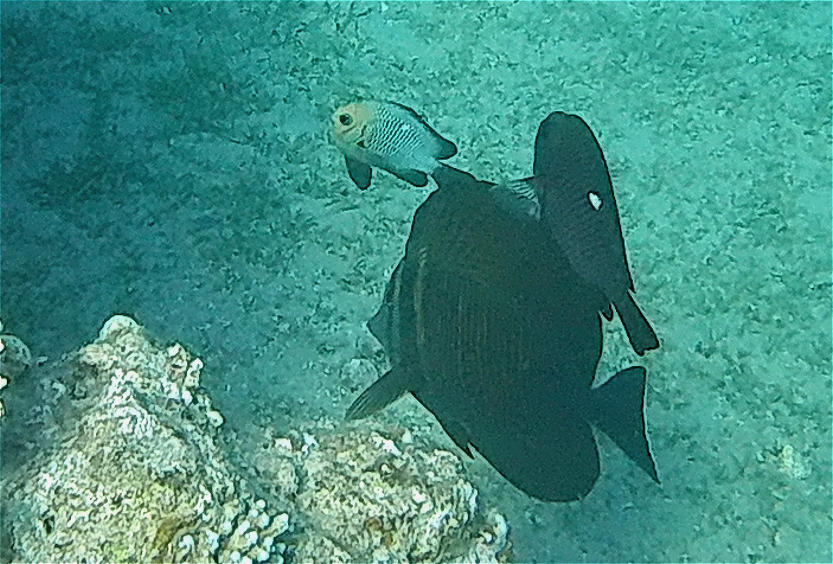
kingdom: Animalia
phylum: Chordata
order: Perciformes
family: Acanthuridae
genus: Zebrasoma
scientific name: Zebrasoma desjardinii
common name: Desjardin's sailfin tang
